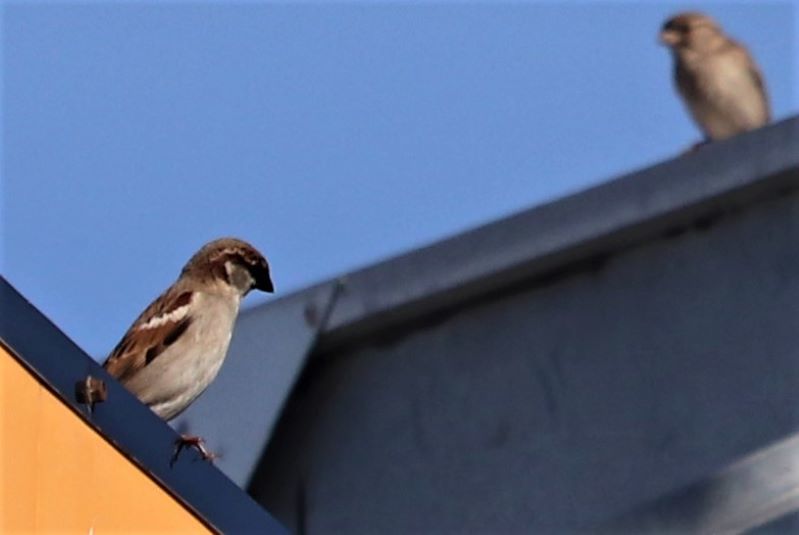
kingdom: Animalia
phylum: Chordata
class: Aves
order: Passeriformes
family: Passeridae
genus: Passer
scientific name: Passer domesticus
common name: House sparrow
